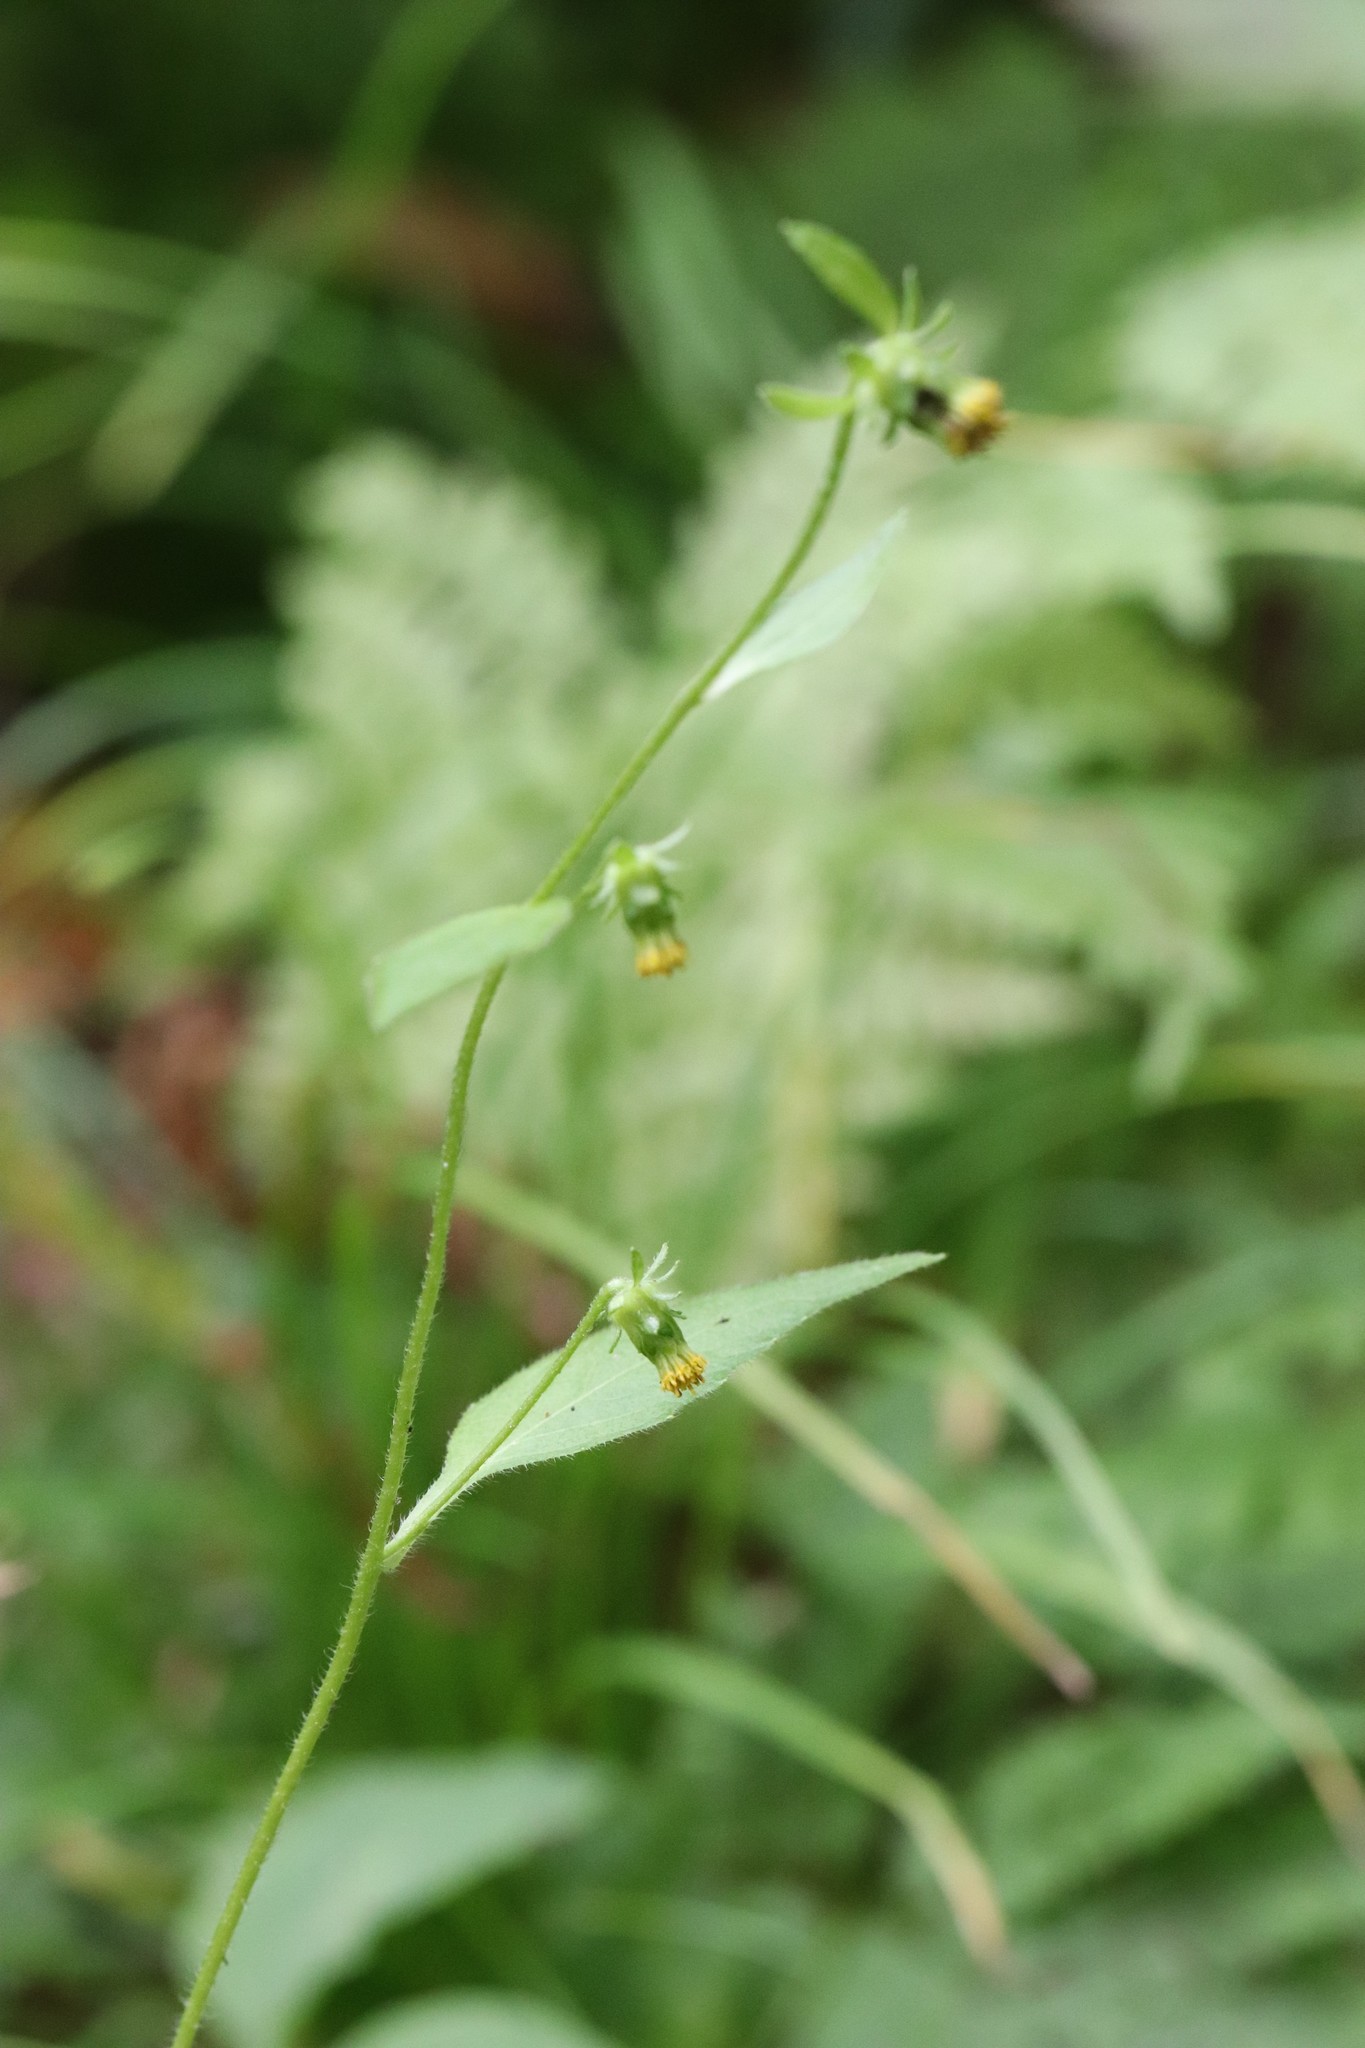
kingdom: Plantae
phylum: Tracheophyta
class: Magnoliopsida
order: Asterales
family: Asteraceae
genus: Carpesium
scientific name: Carpesium triste
